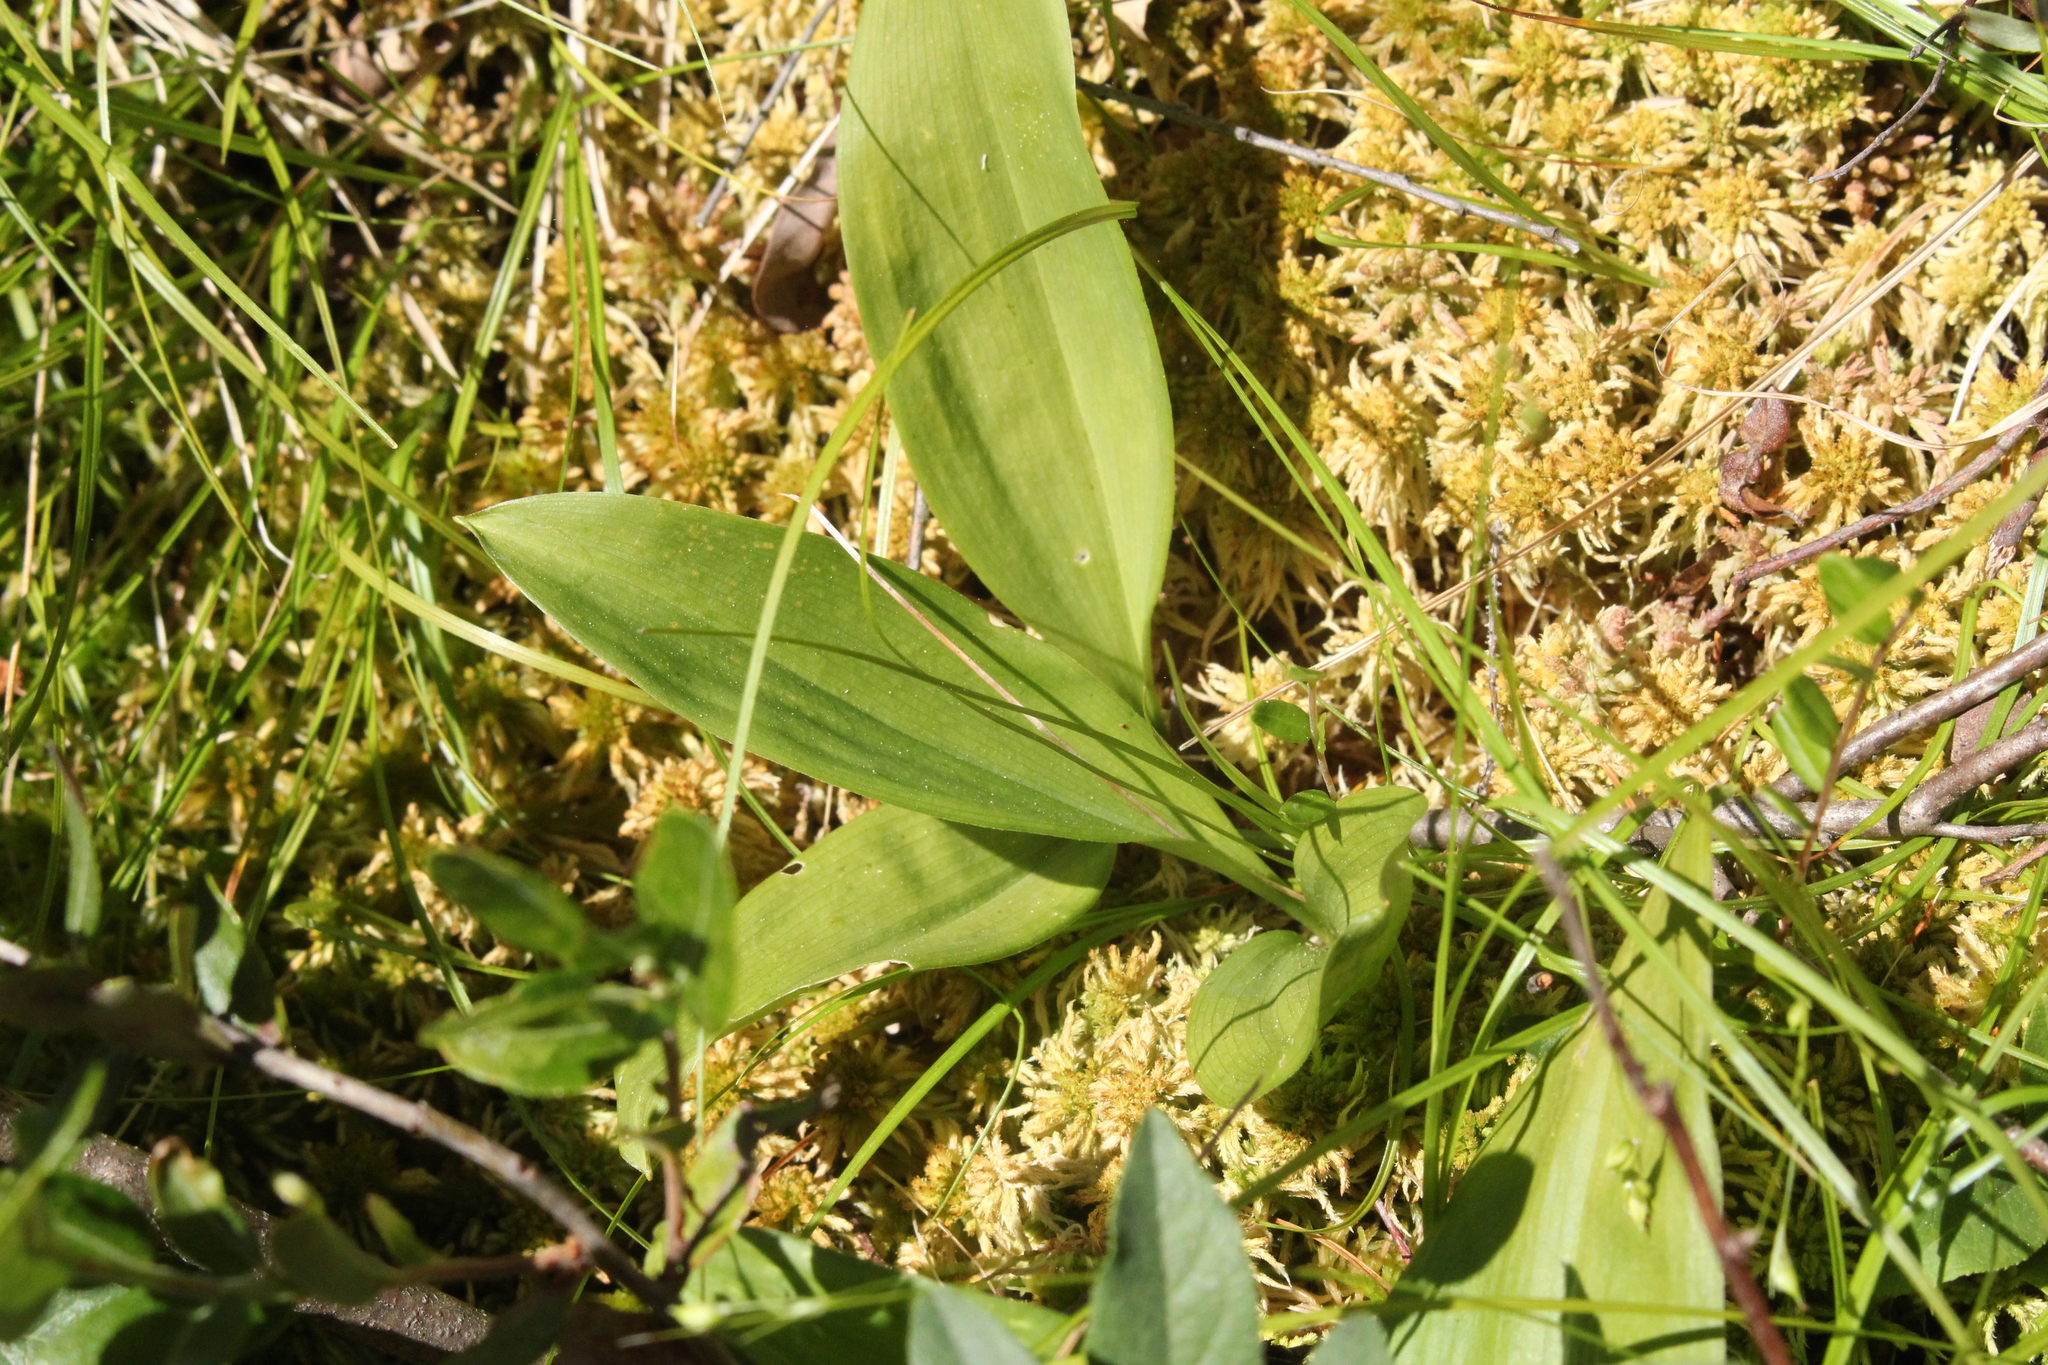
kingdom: Plantae
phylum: Tracheophyta
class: Liliopsida
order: Asparagales
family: Asparagaceae
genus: Maianthemum
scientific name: Maianthemum trifolium
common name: Swamp false solomon's seal
